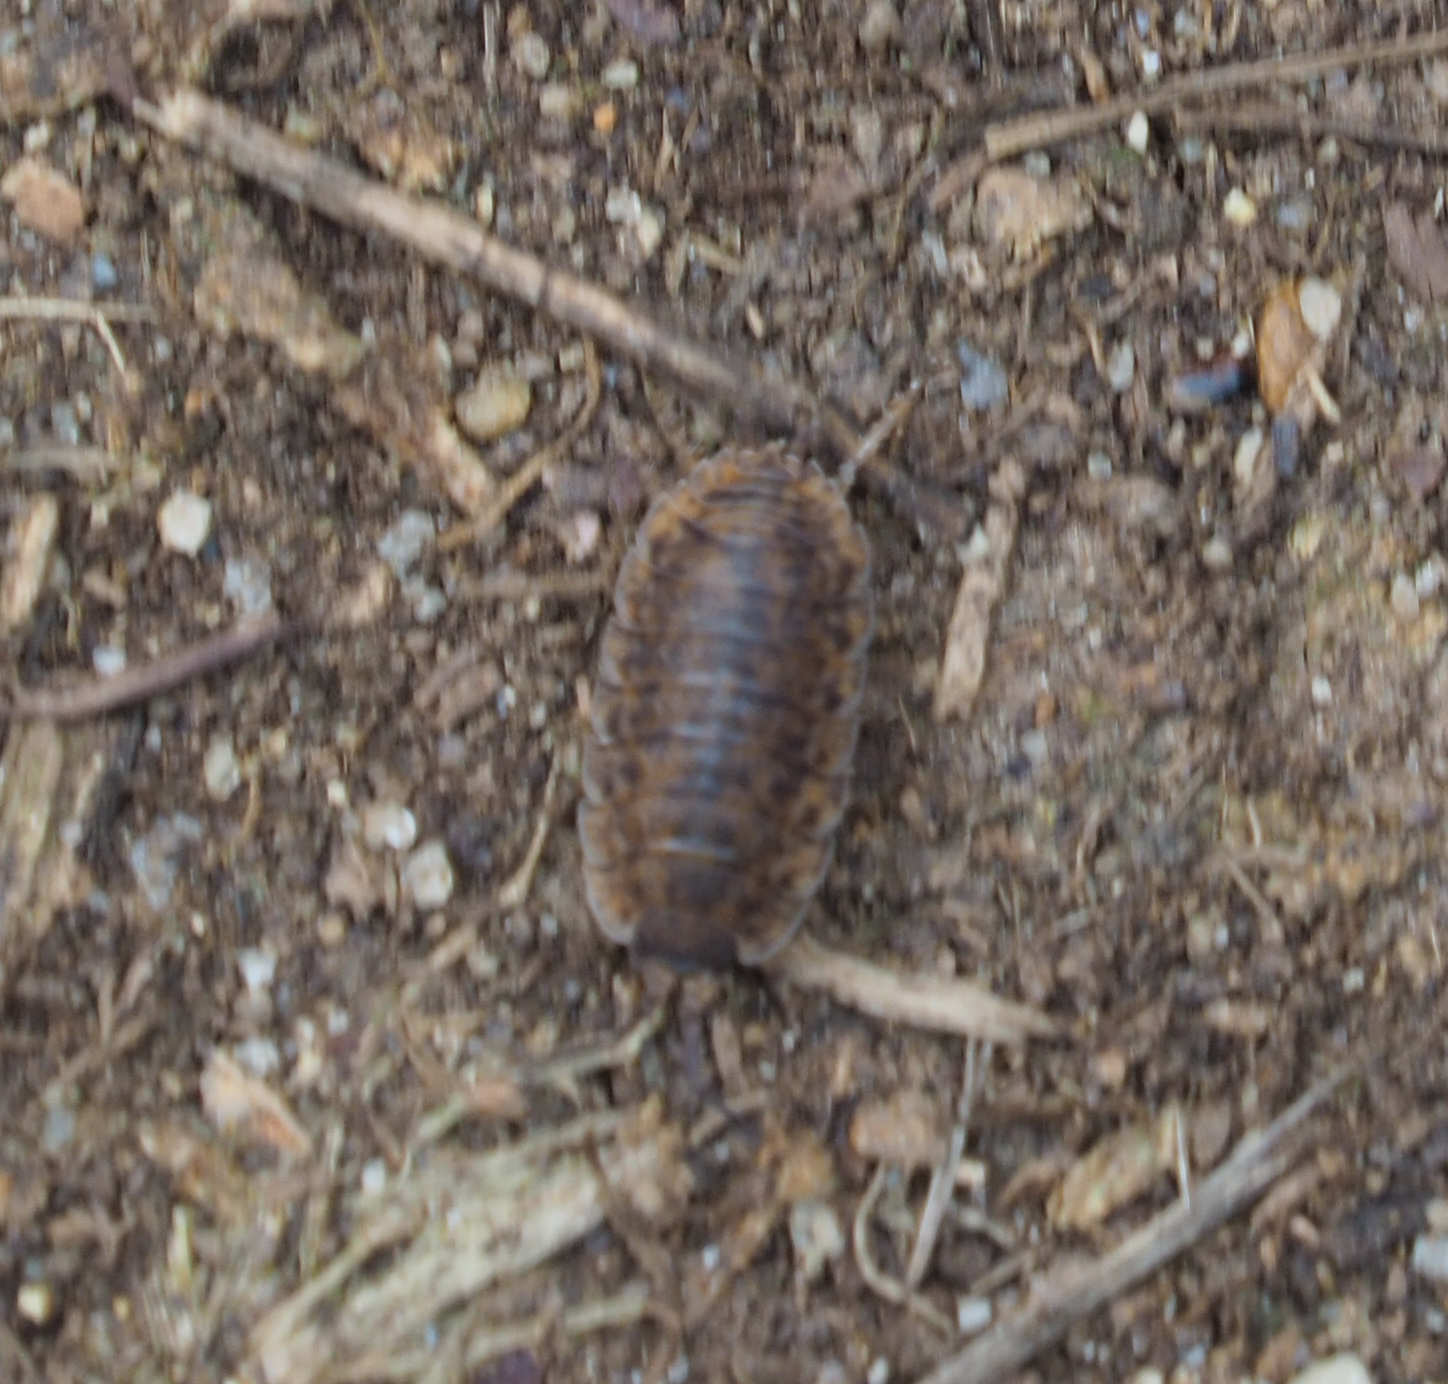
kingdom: Animalia
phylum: Arthropoda
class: Malacostraca
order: Isopoda
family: Trachelipodidae
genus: Trachelipus
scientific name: Trachelipus rathkii
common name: Isopod
